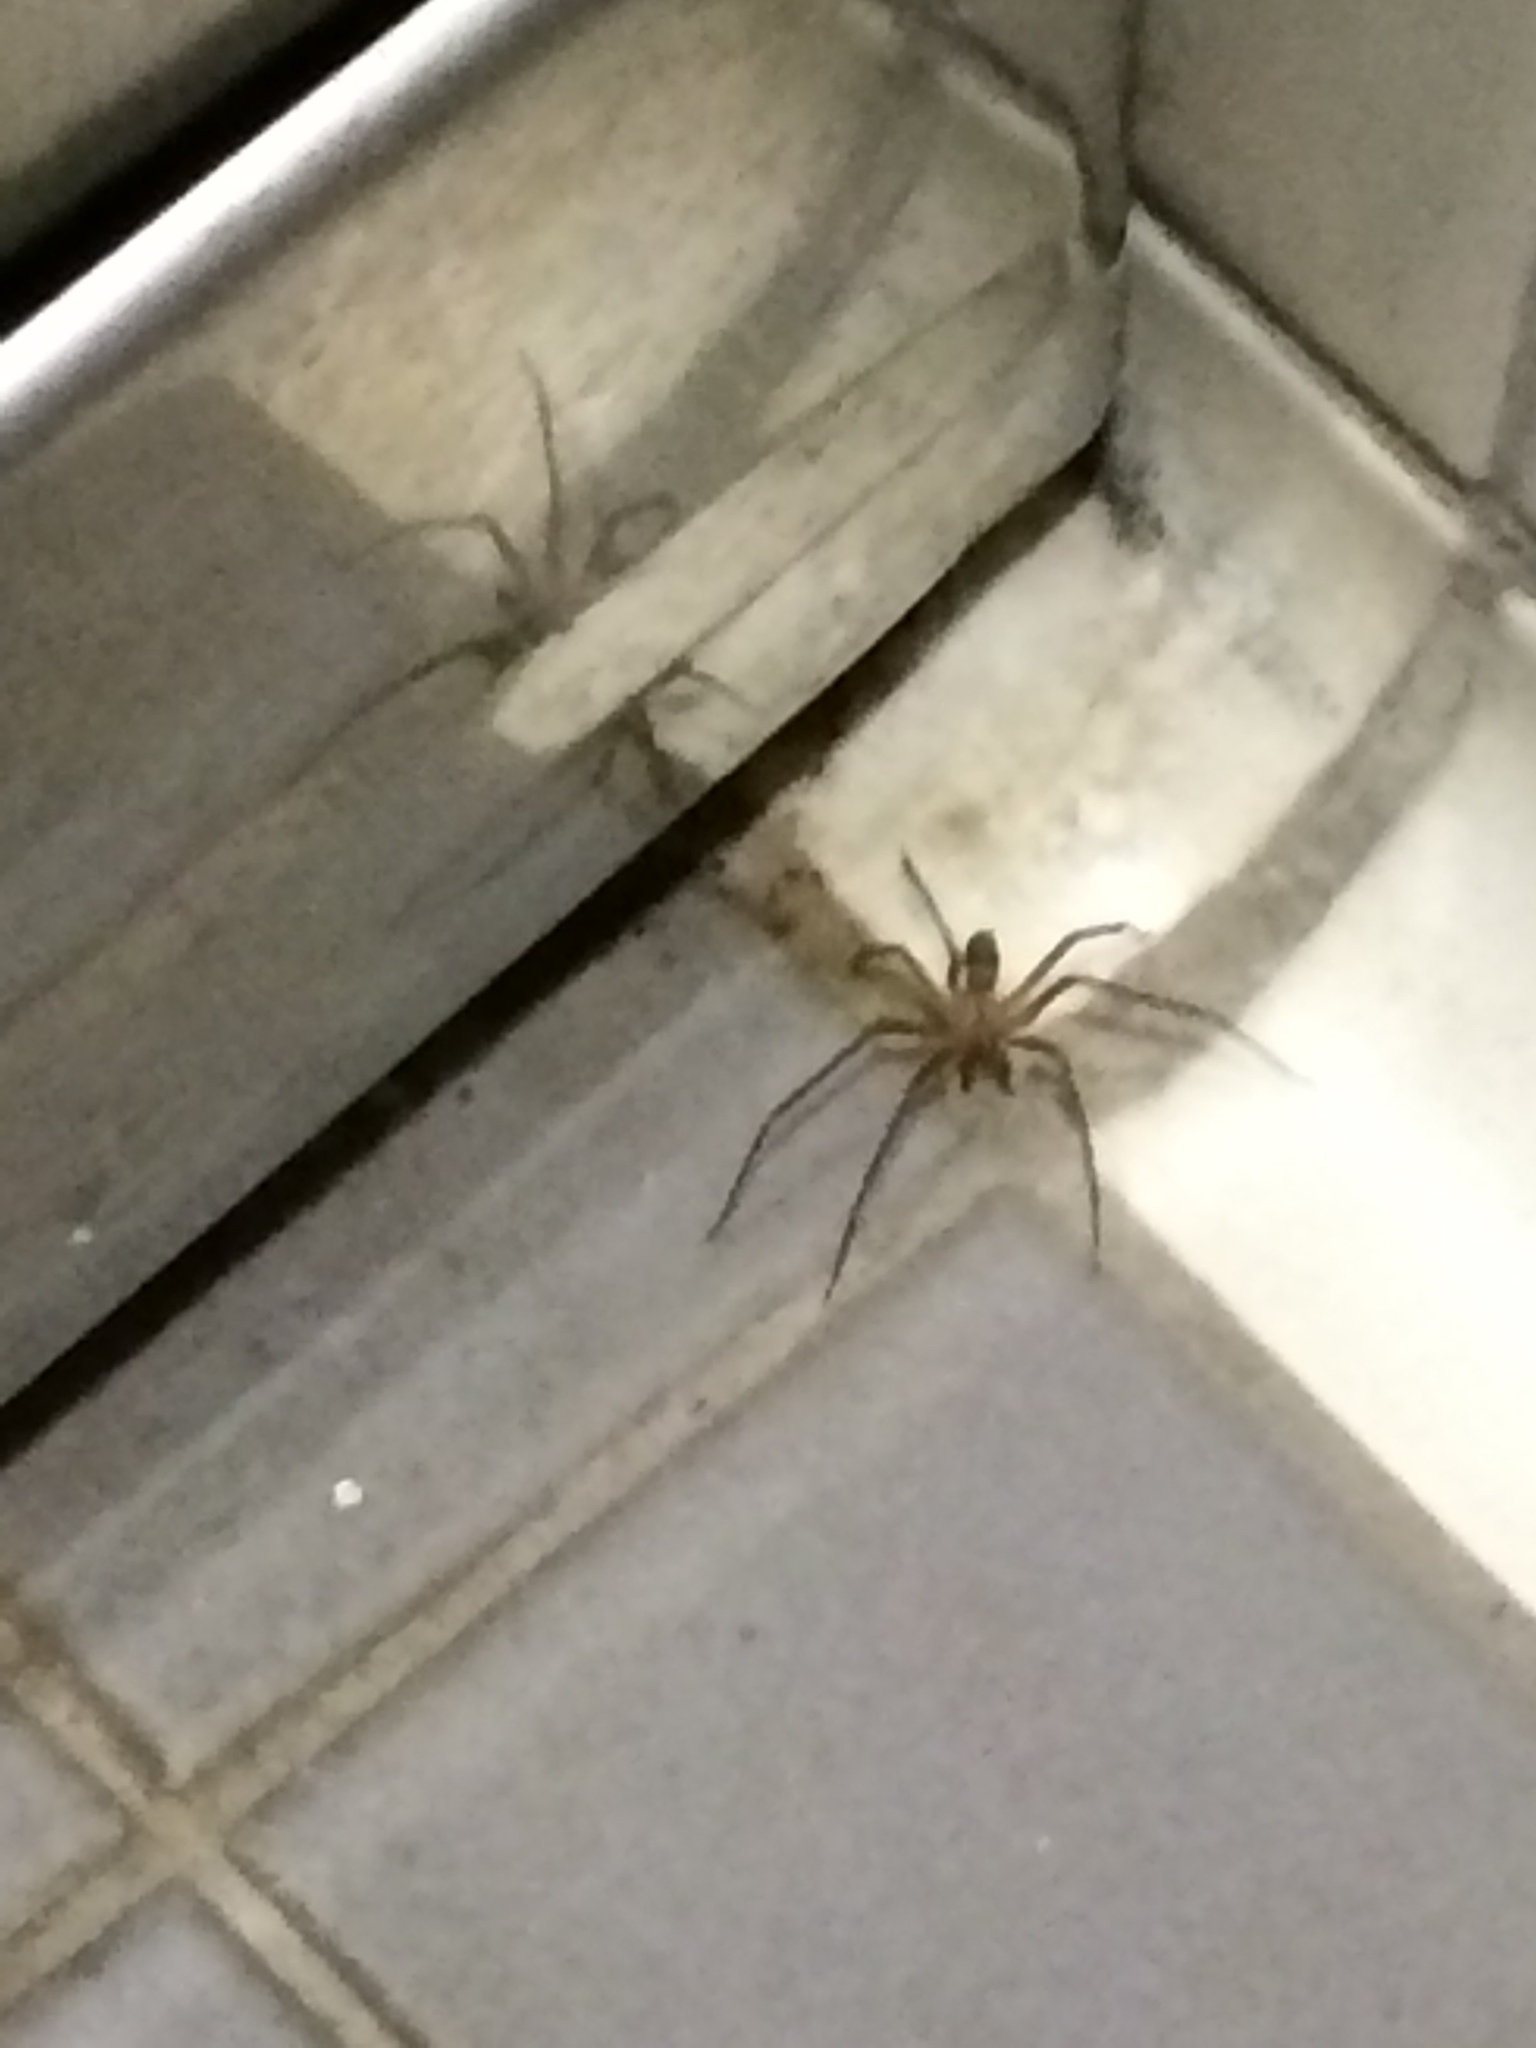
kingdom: Animalia
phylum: Arthropoda
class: Arachnida
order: Araneae
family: Sicariidae
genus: Loxosceles
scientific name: Loxosceles reclusa
